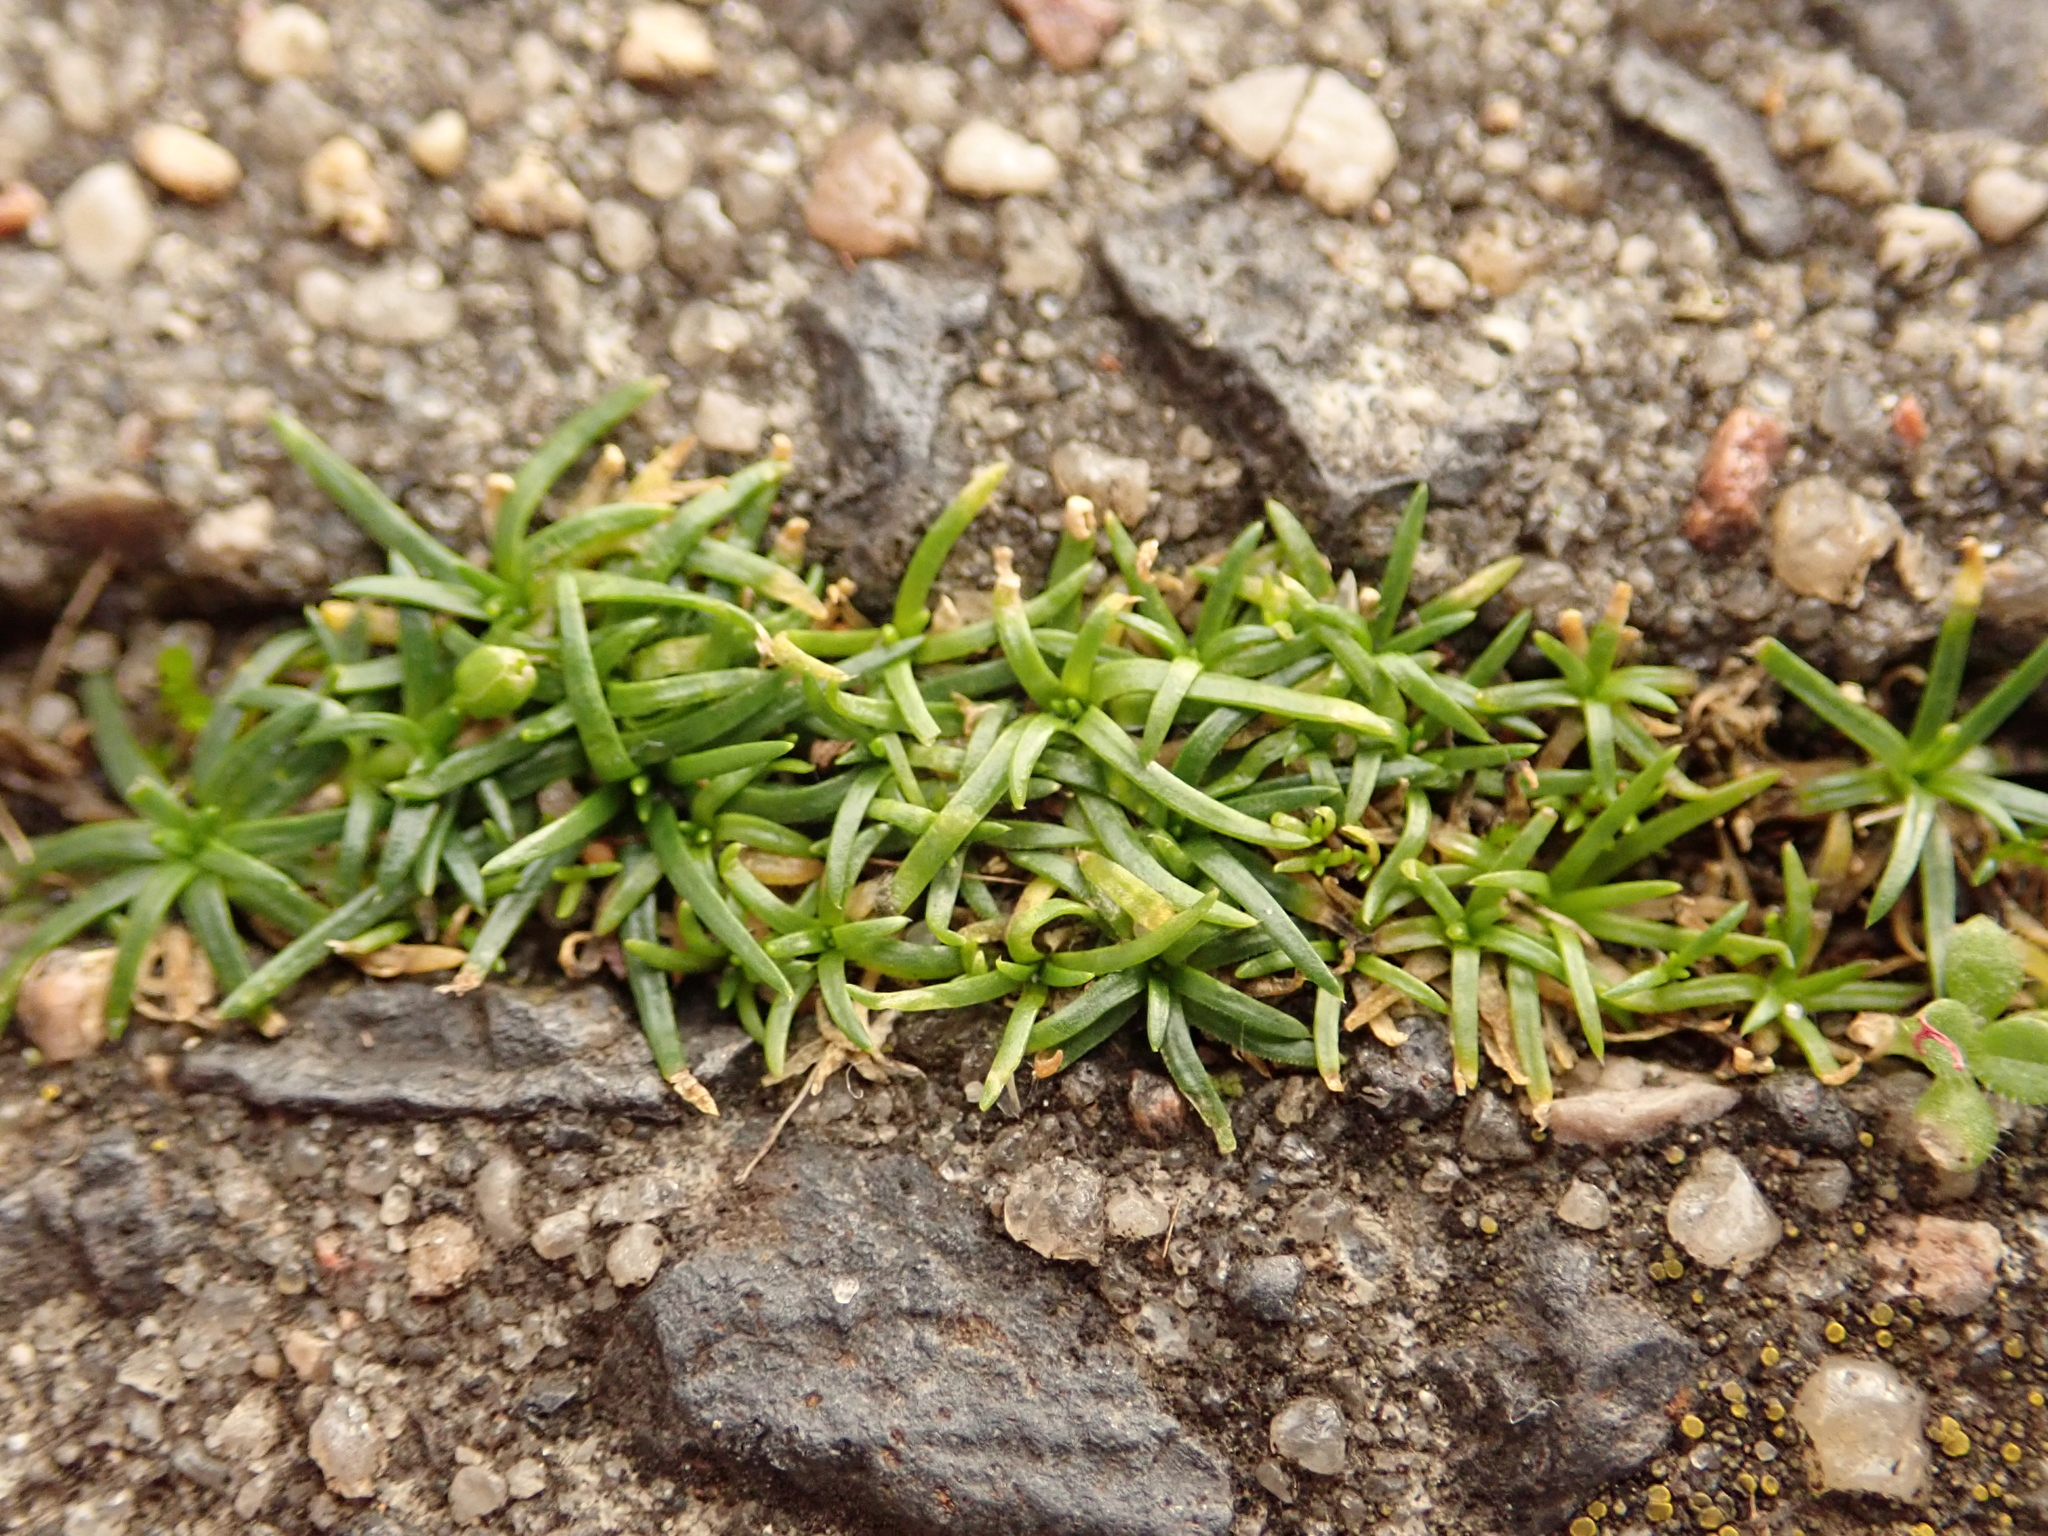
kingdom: Plantae
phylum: Tracheophyta
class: Magnoliopsida
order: Caryophyllales
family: Caryophyllaceae
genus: Sagina
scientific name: Sagina procumbens
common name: Procumbent pearlwort
